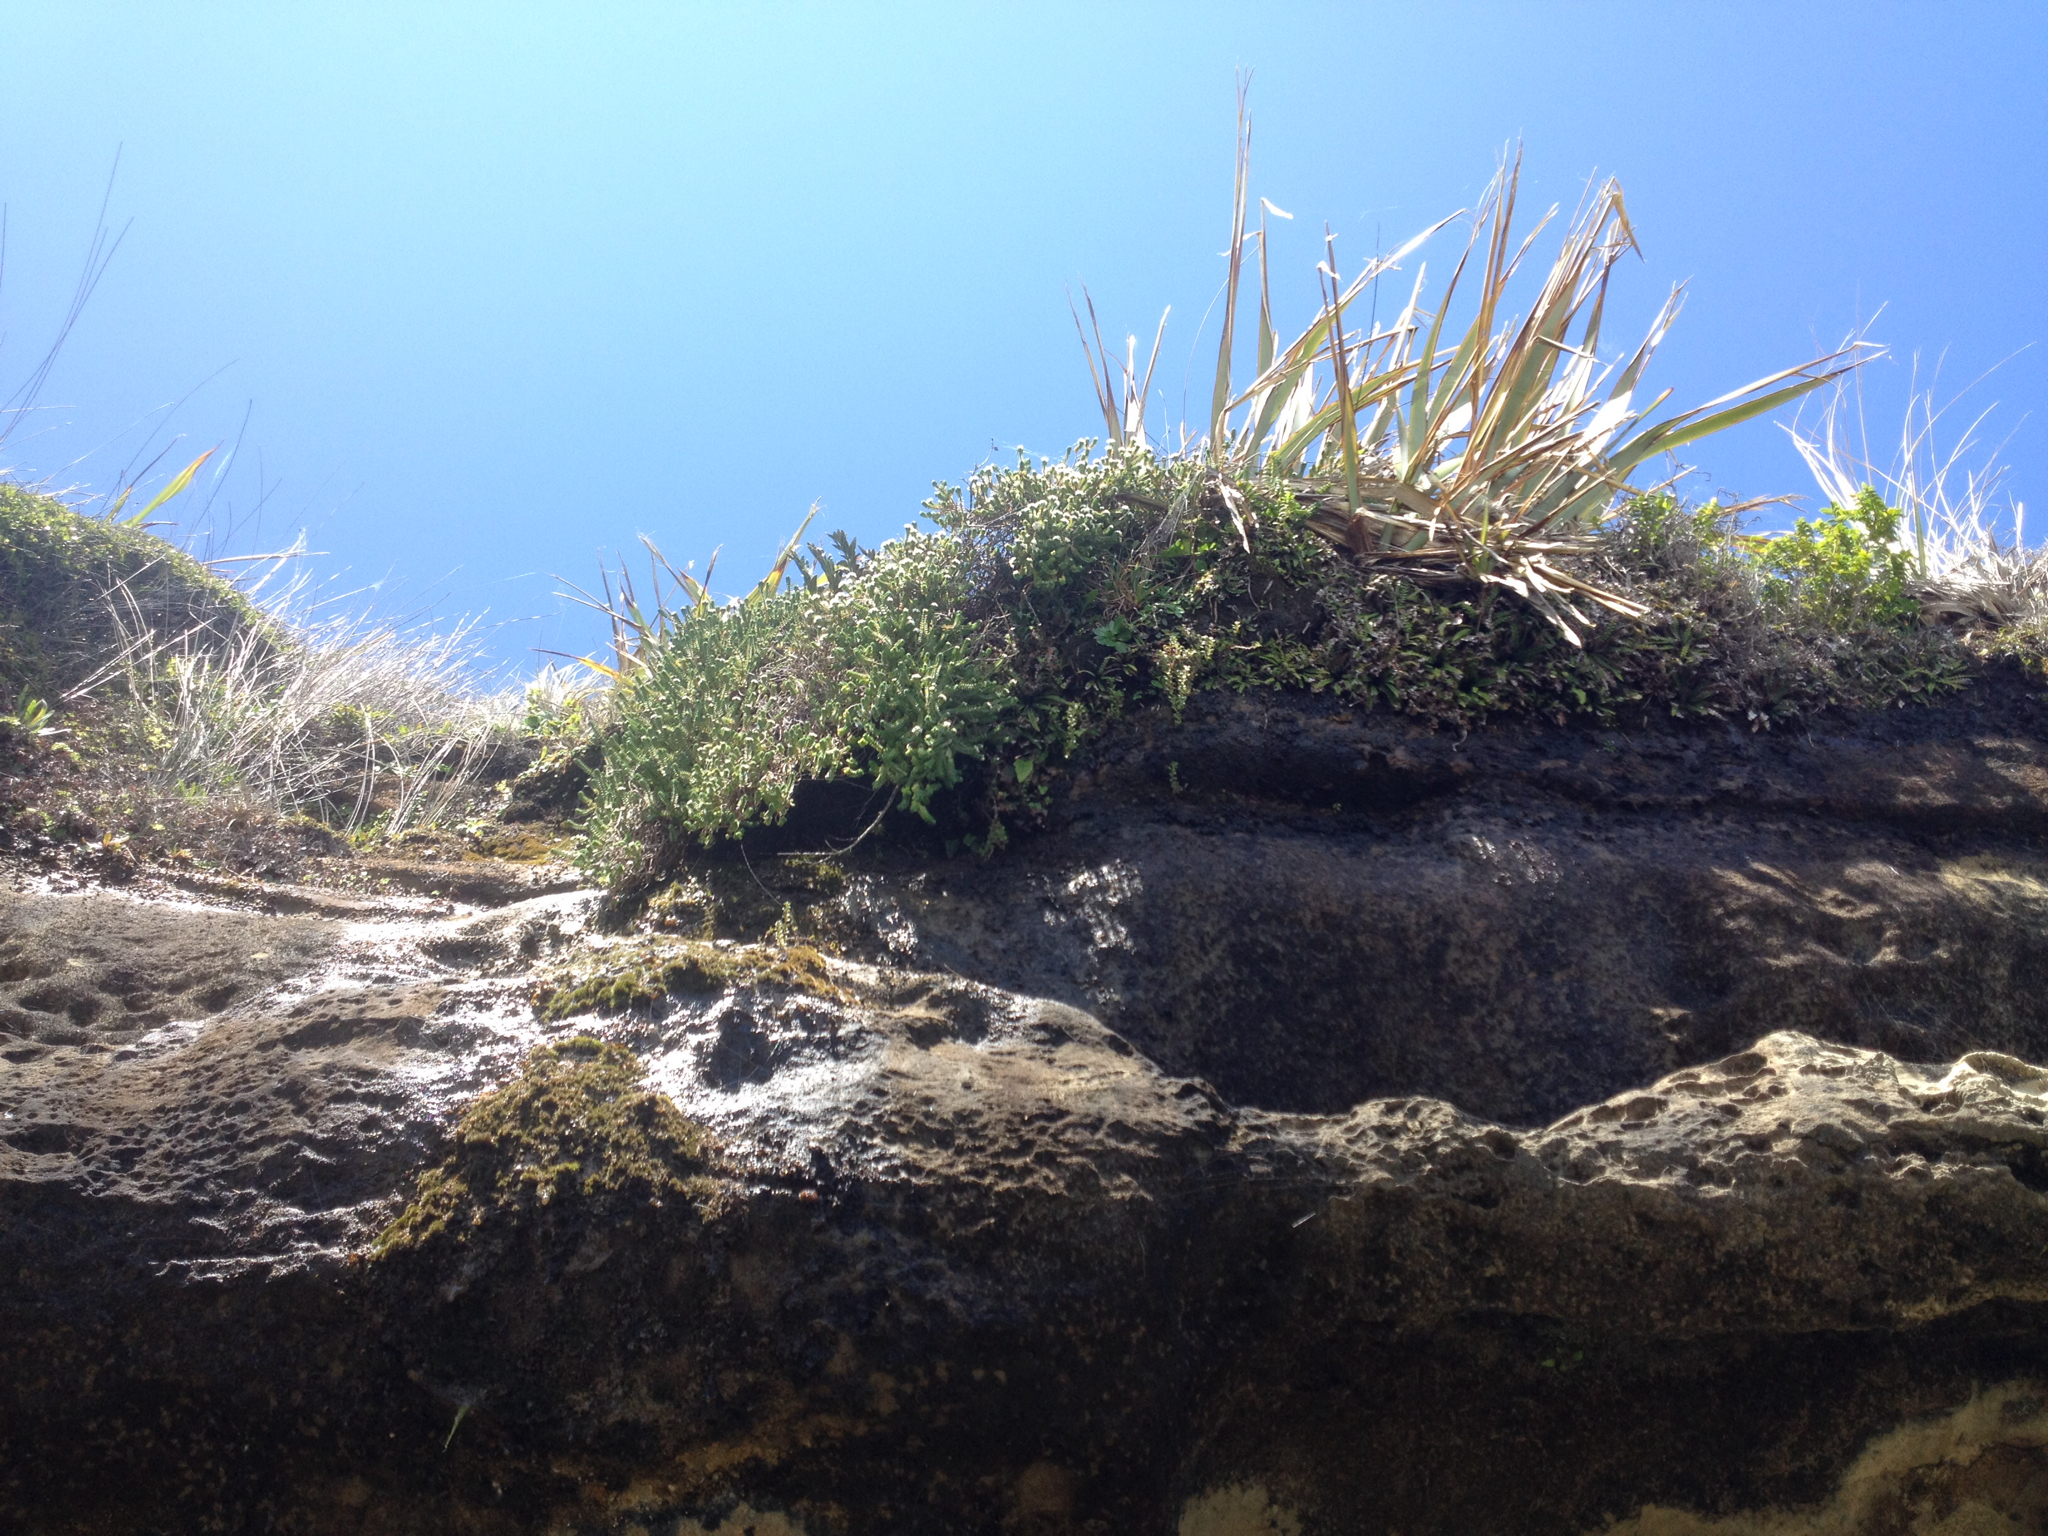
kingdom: Plantae
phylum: Tracheophyta
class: Magnoliopsida
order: Malvales
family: Thymelaeaceae
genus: Pimelea
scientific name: Pimelea carnosa
